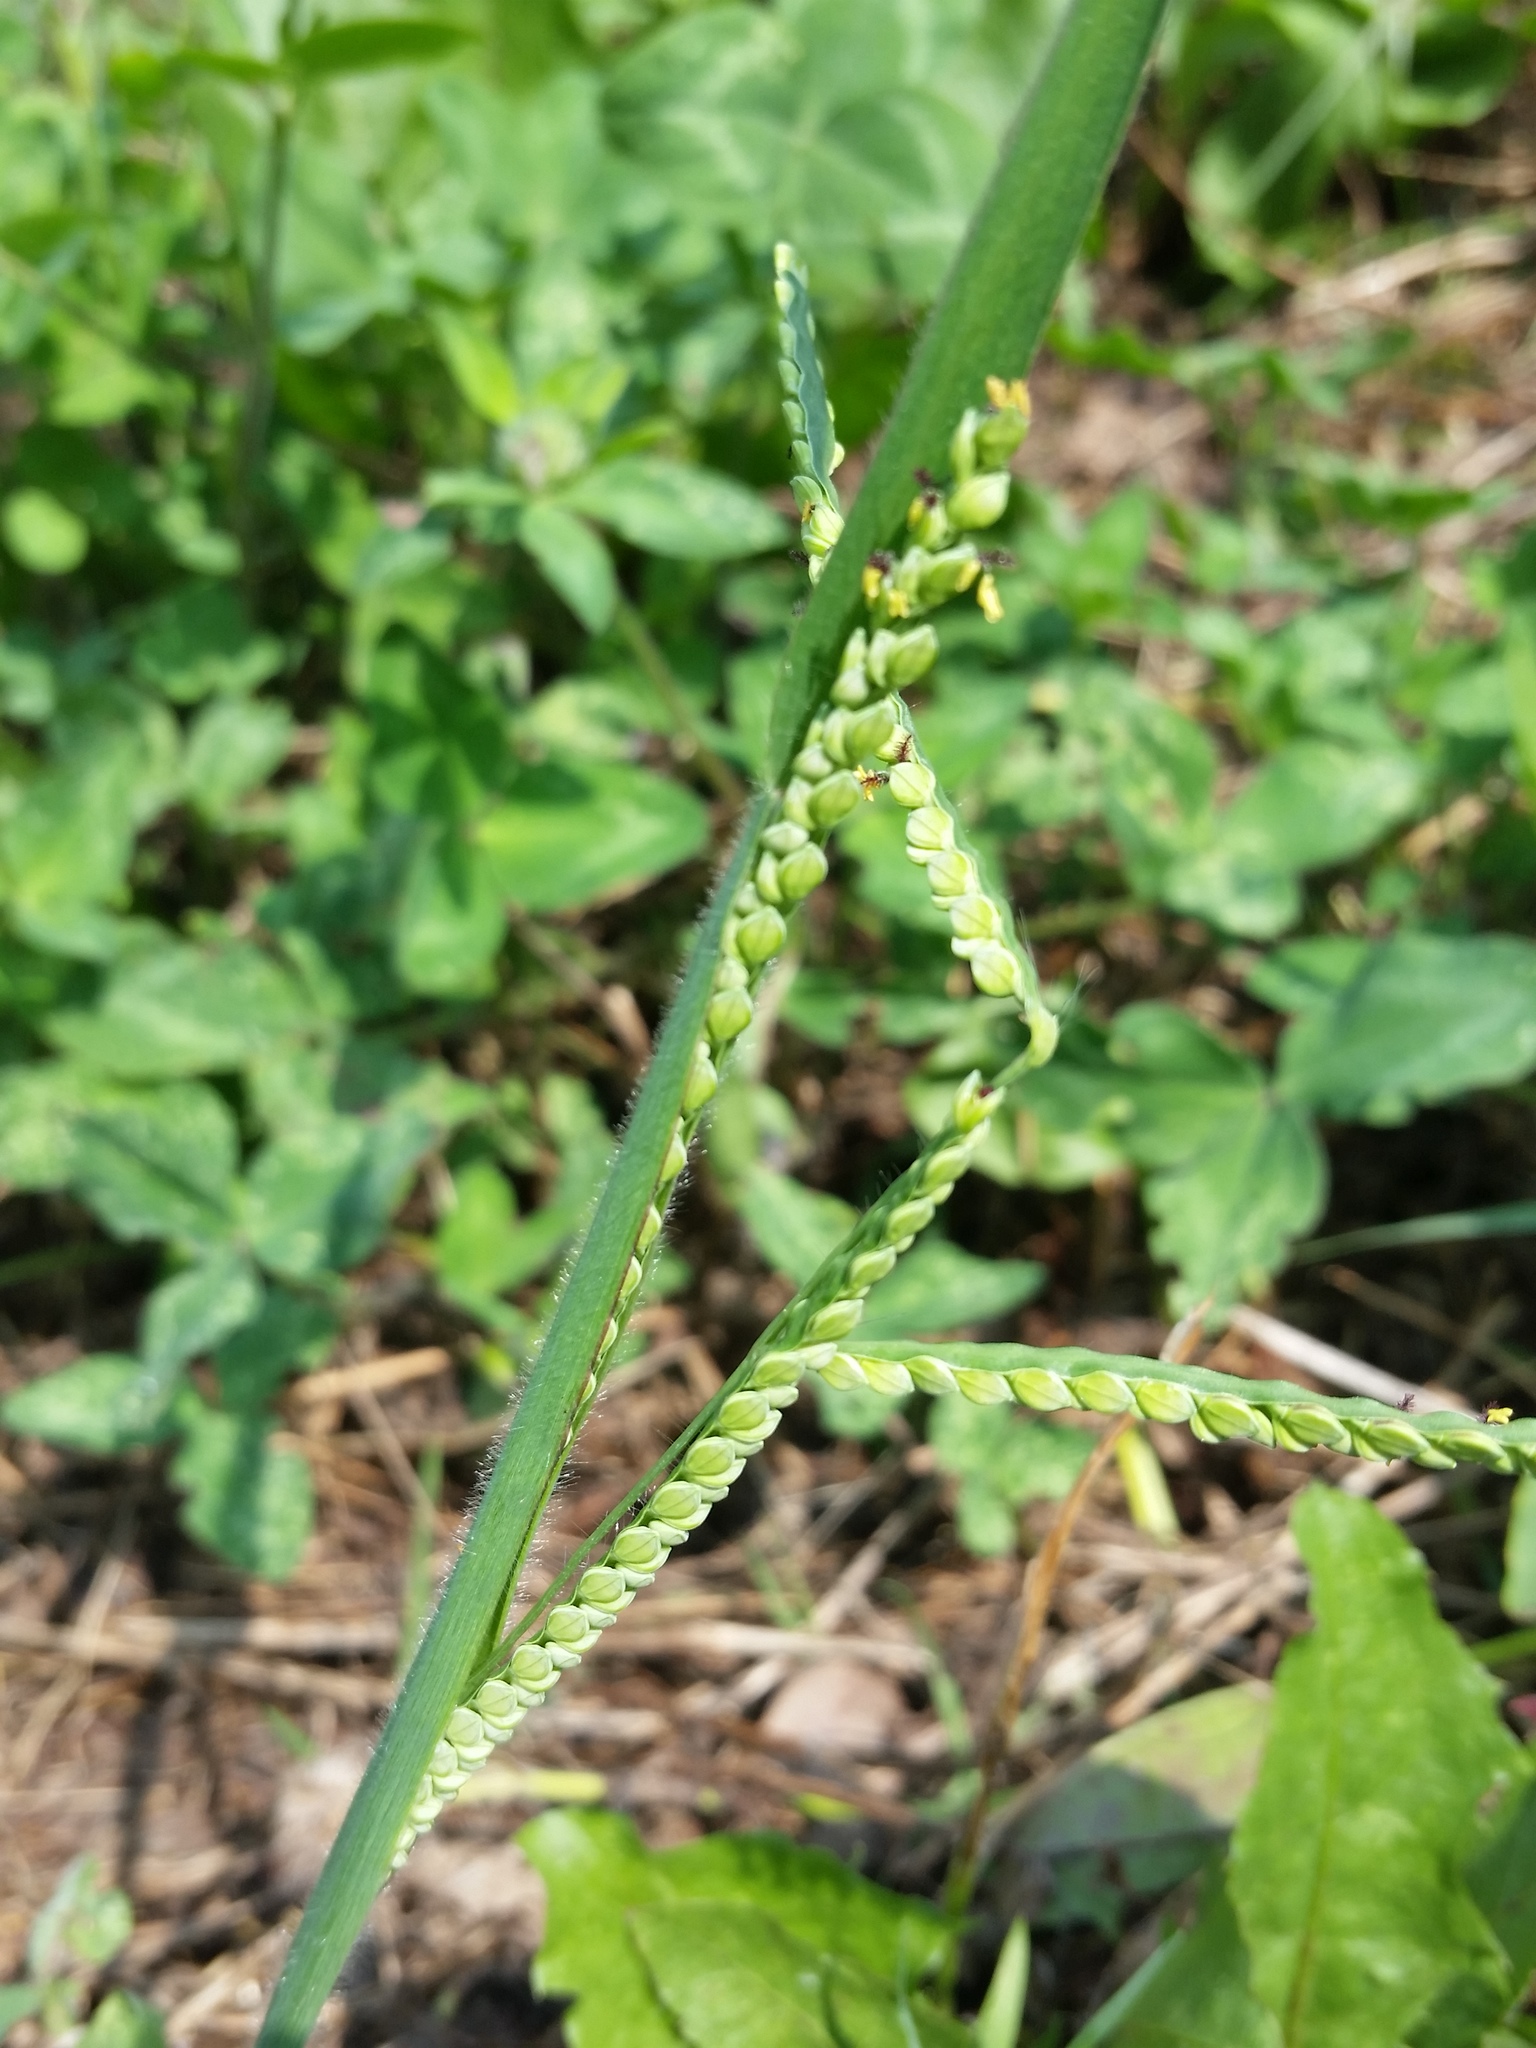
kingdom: Plantae
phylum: Tracheophyta
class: Liliopsida
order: Poales
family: Poaceae
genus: Paspalum
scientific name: Paspalum laeve
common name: Field paspalum
